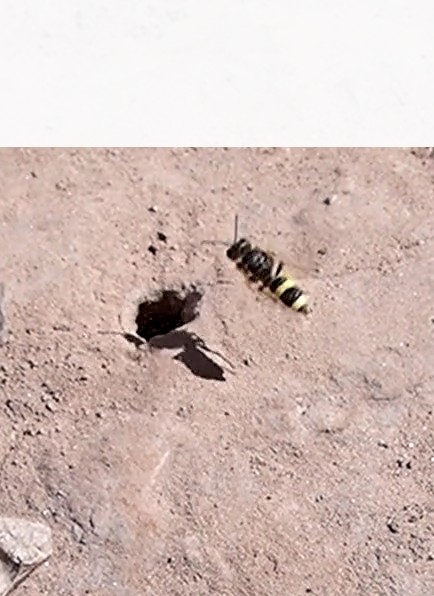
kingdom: Animalia
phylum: Arthropoda
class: Insecta
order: Hymenoptera
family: Crabronidae
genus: Cerceris
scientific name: Cerceris rybyensis
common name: Ornate tailed digger wasp
